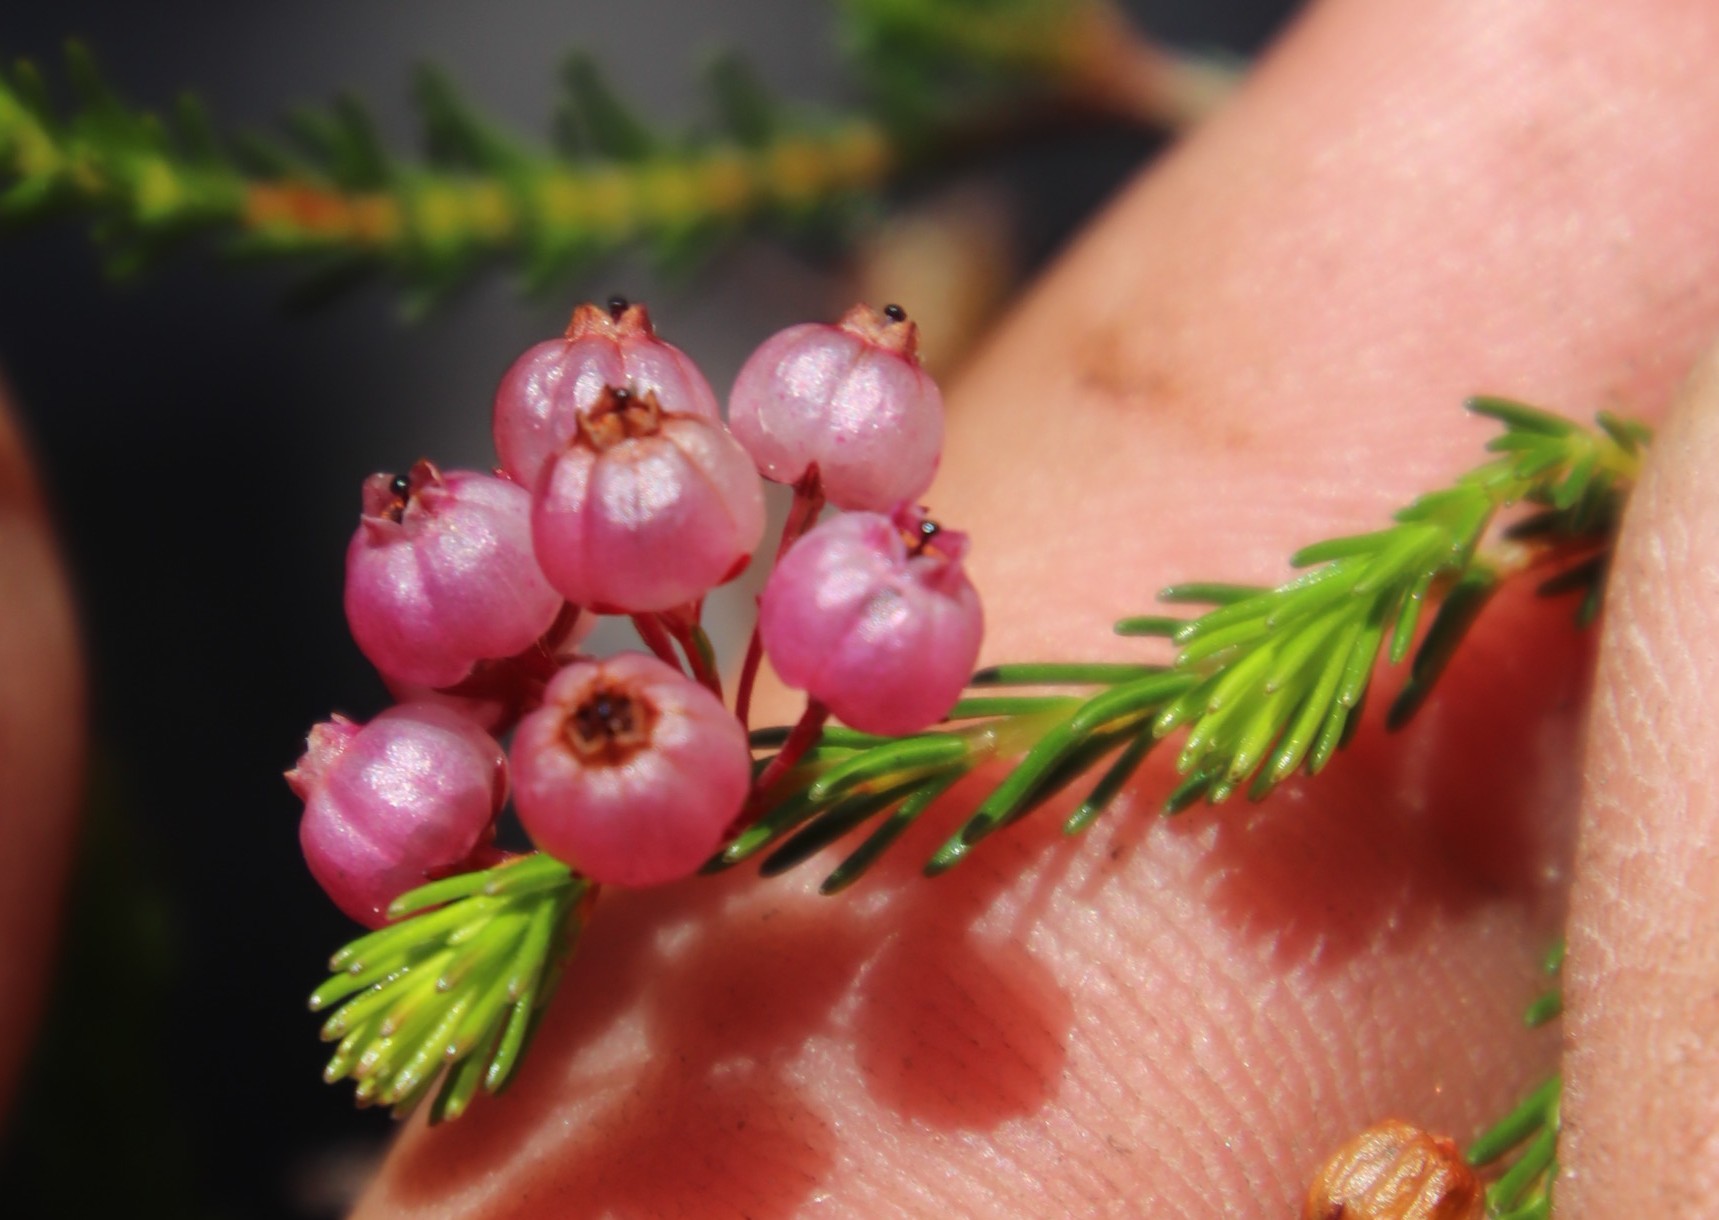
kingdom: Plantae
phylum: Tracheophyta
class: Magnoliopsida
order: Ericales
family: Ericaceae
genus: Erica
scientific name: Erica multumbellifera
